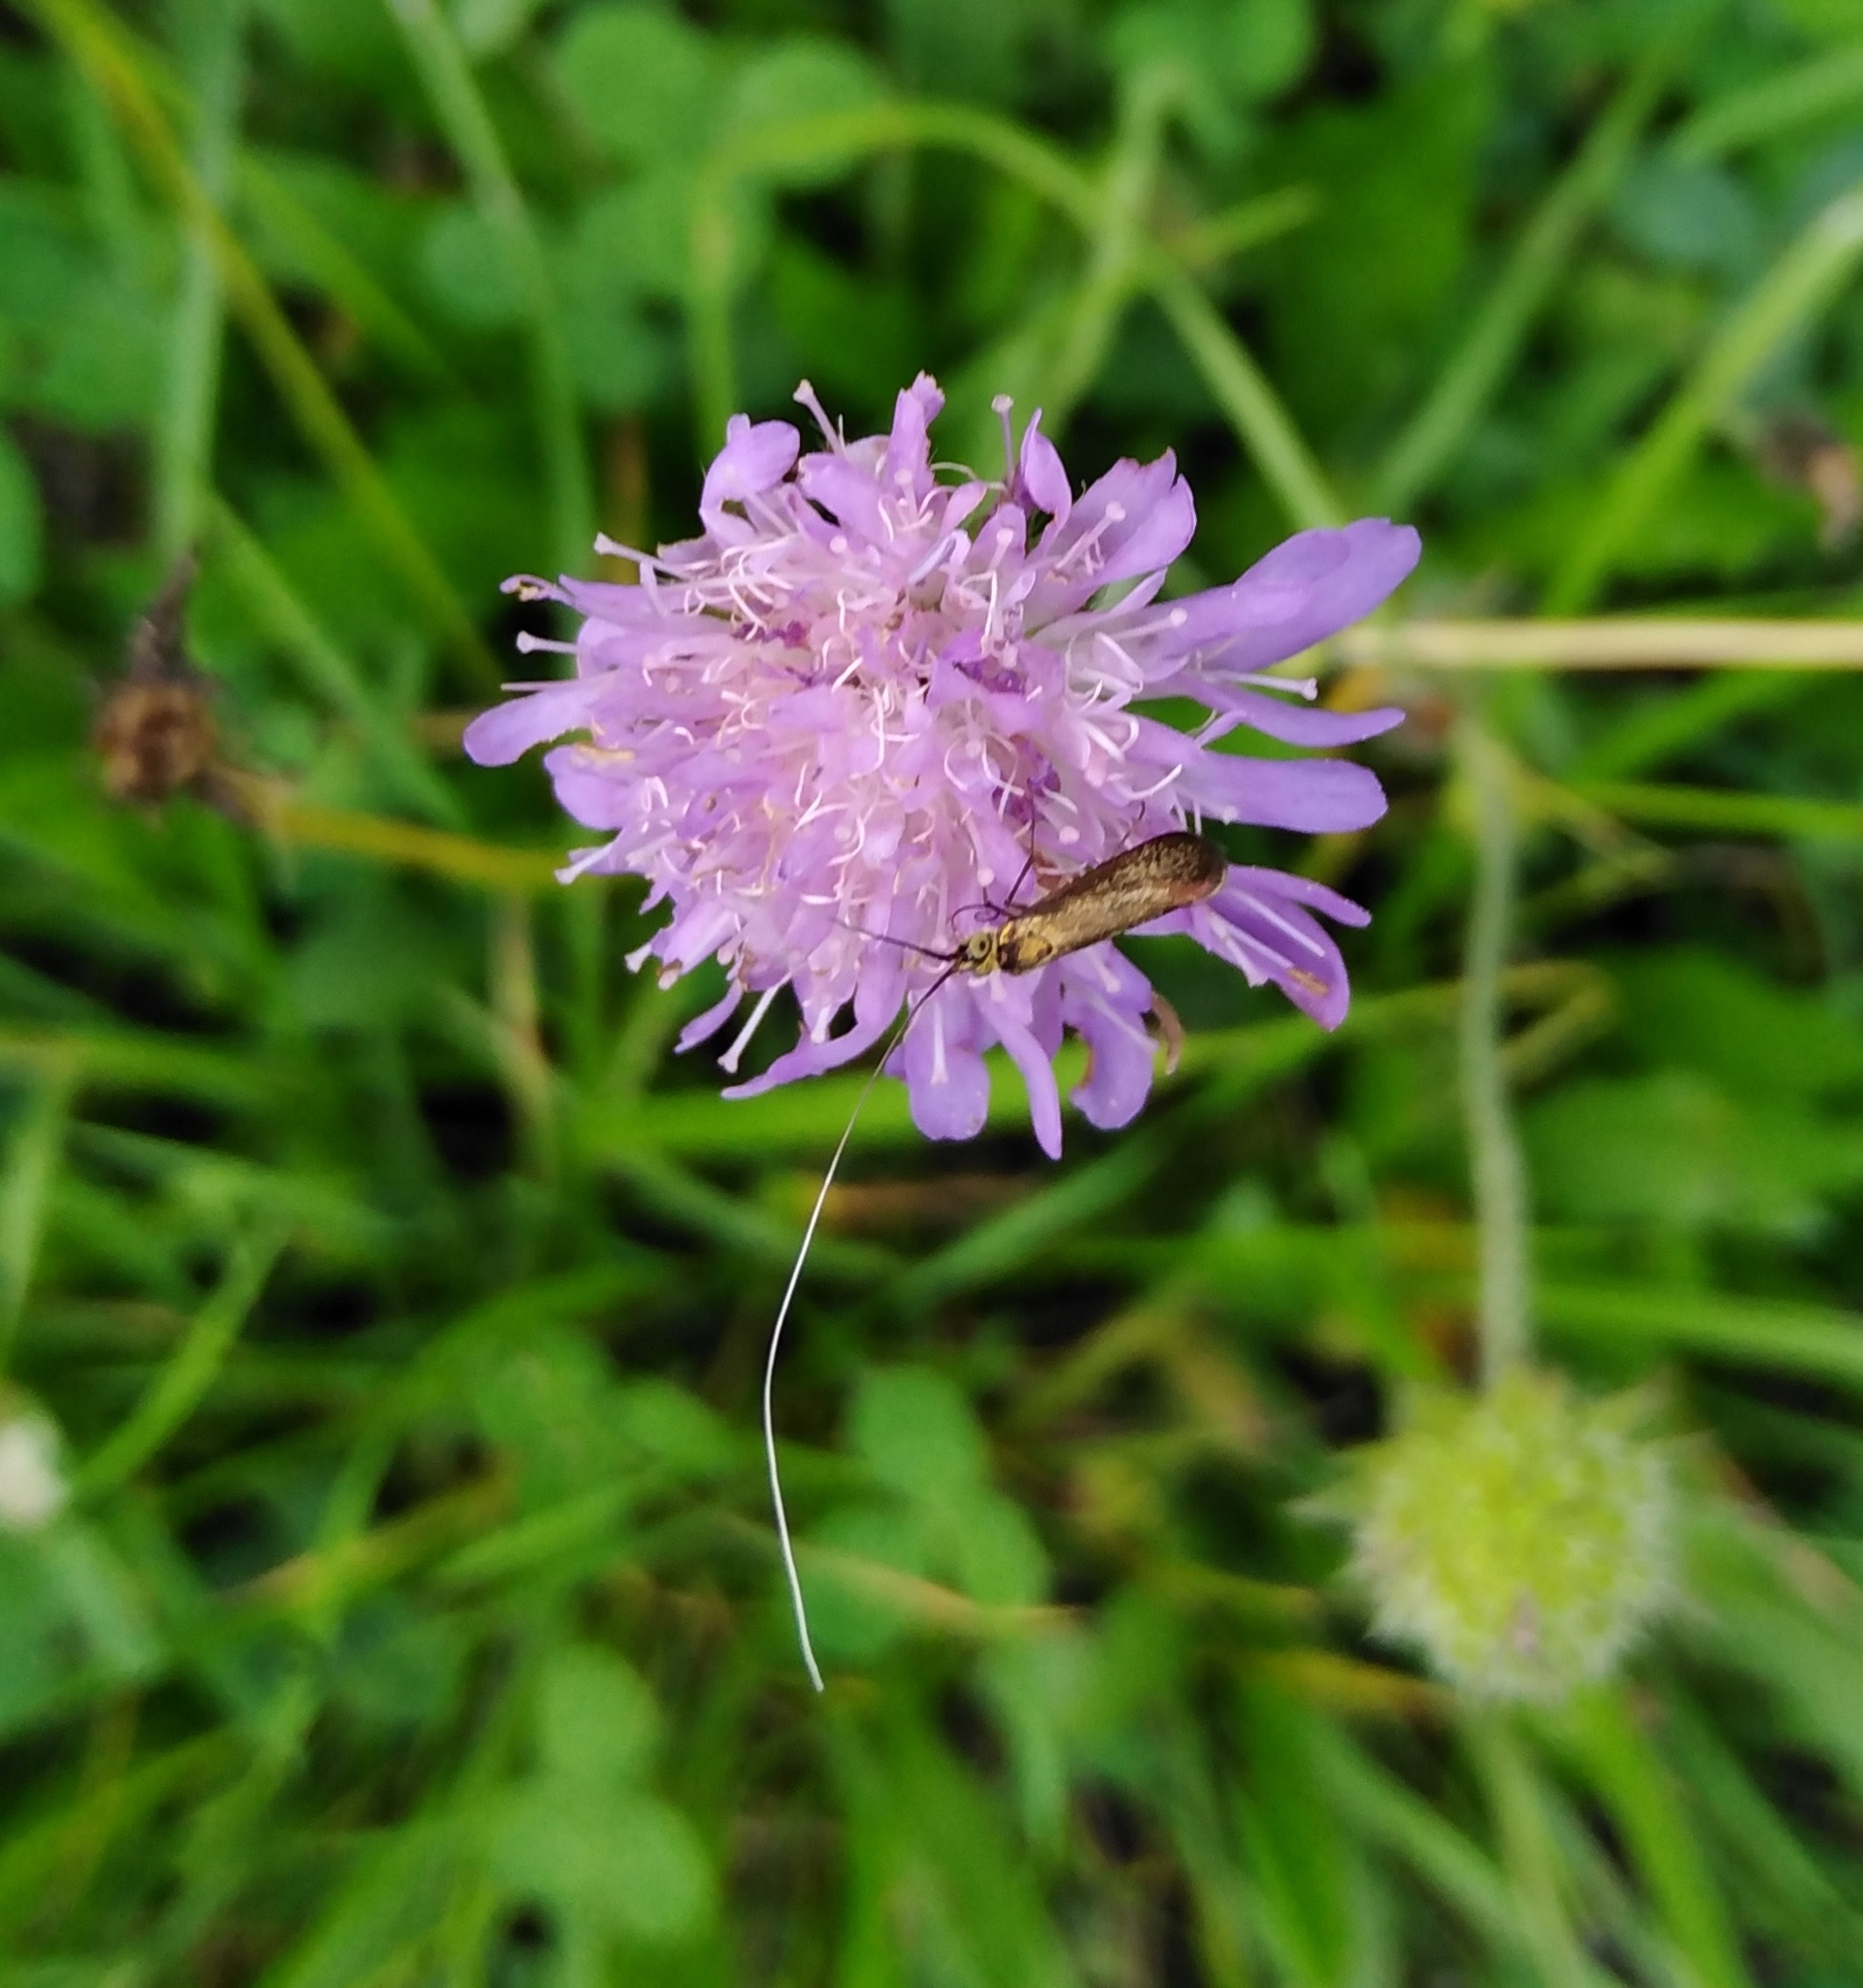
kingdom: Animalia
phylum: Arthropoda
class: Insecta
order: Lepidoptera
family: Adelidae
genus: Nemophora
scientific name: Nemophora metallica
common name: Brassy long-horn
